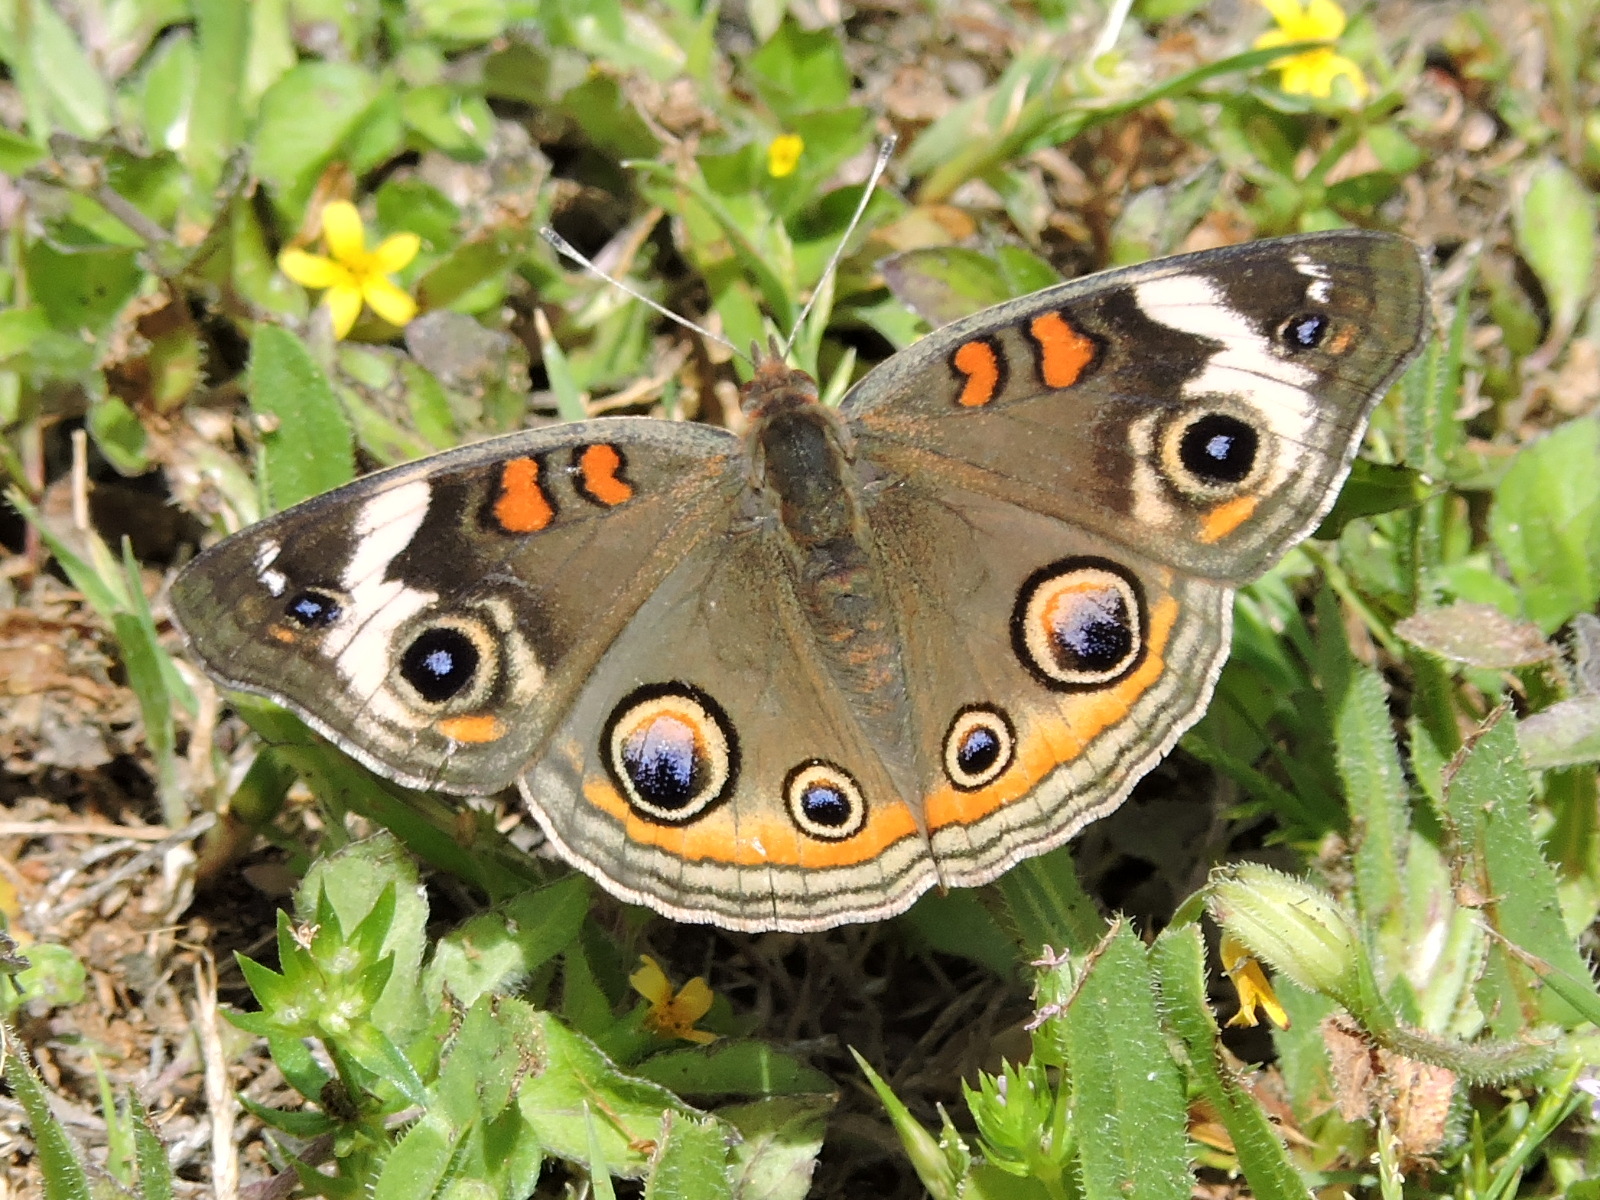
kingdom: Animalia
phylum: Arthropoda
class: Insecta
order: Lepidoptera
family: Nymphalidae
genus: Junonia
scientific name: Junonia coenia
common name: Common buckeye
